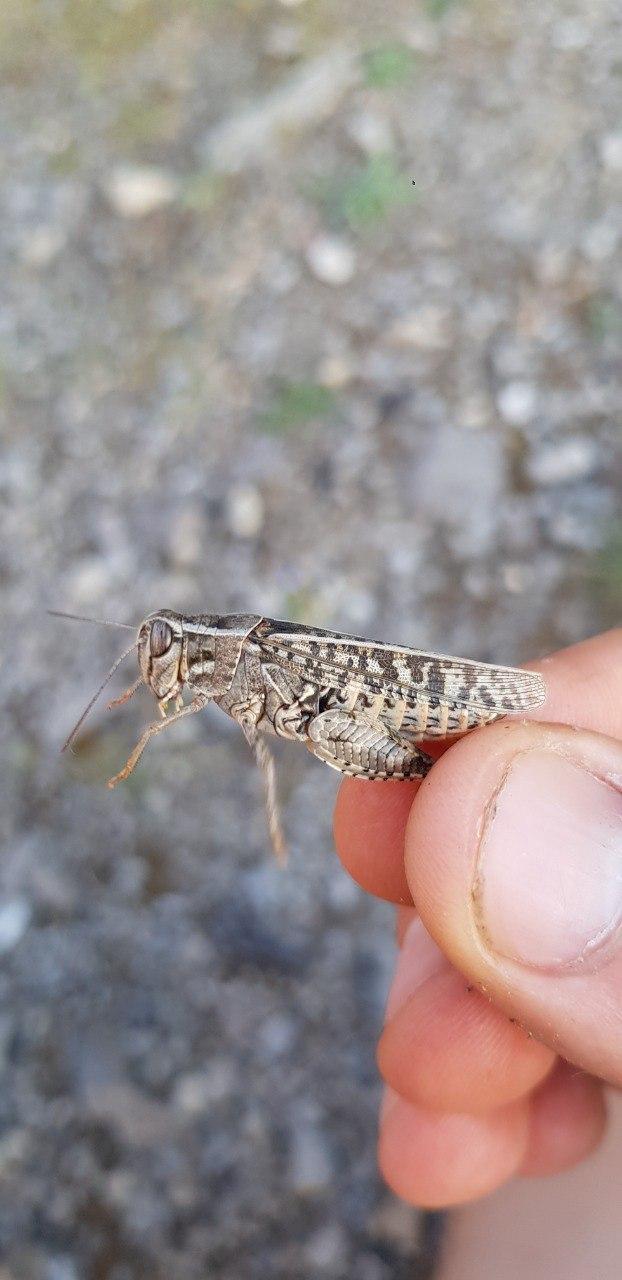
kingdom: Animalia
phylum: Arthropoda
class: Insecta
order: Orthoptera
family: Acrididae
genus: Calliptamus
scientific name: Calliptamus italicus
